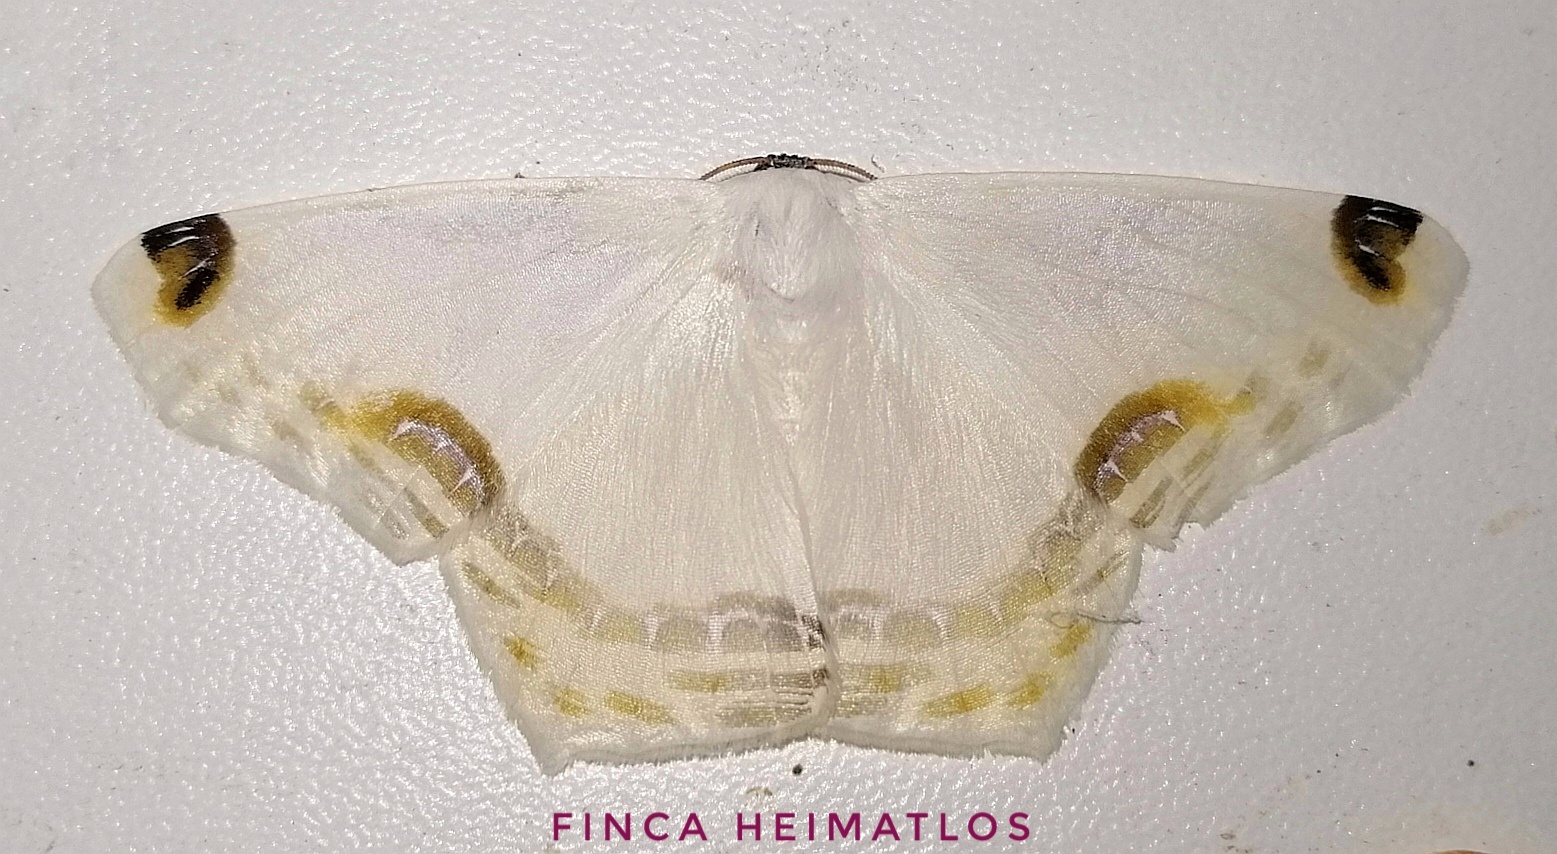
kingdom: Animalia
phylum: Arthropoda
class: Insecta
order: Lepidoptera
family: Geometridae
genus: Sericoptera
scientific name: Sericoptera chiffa
